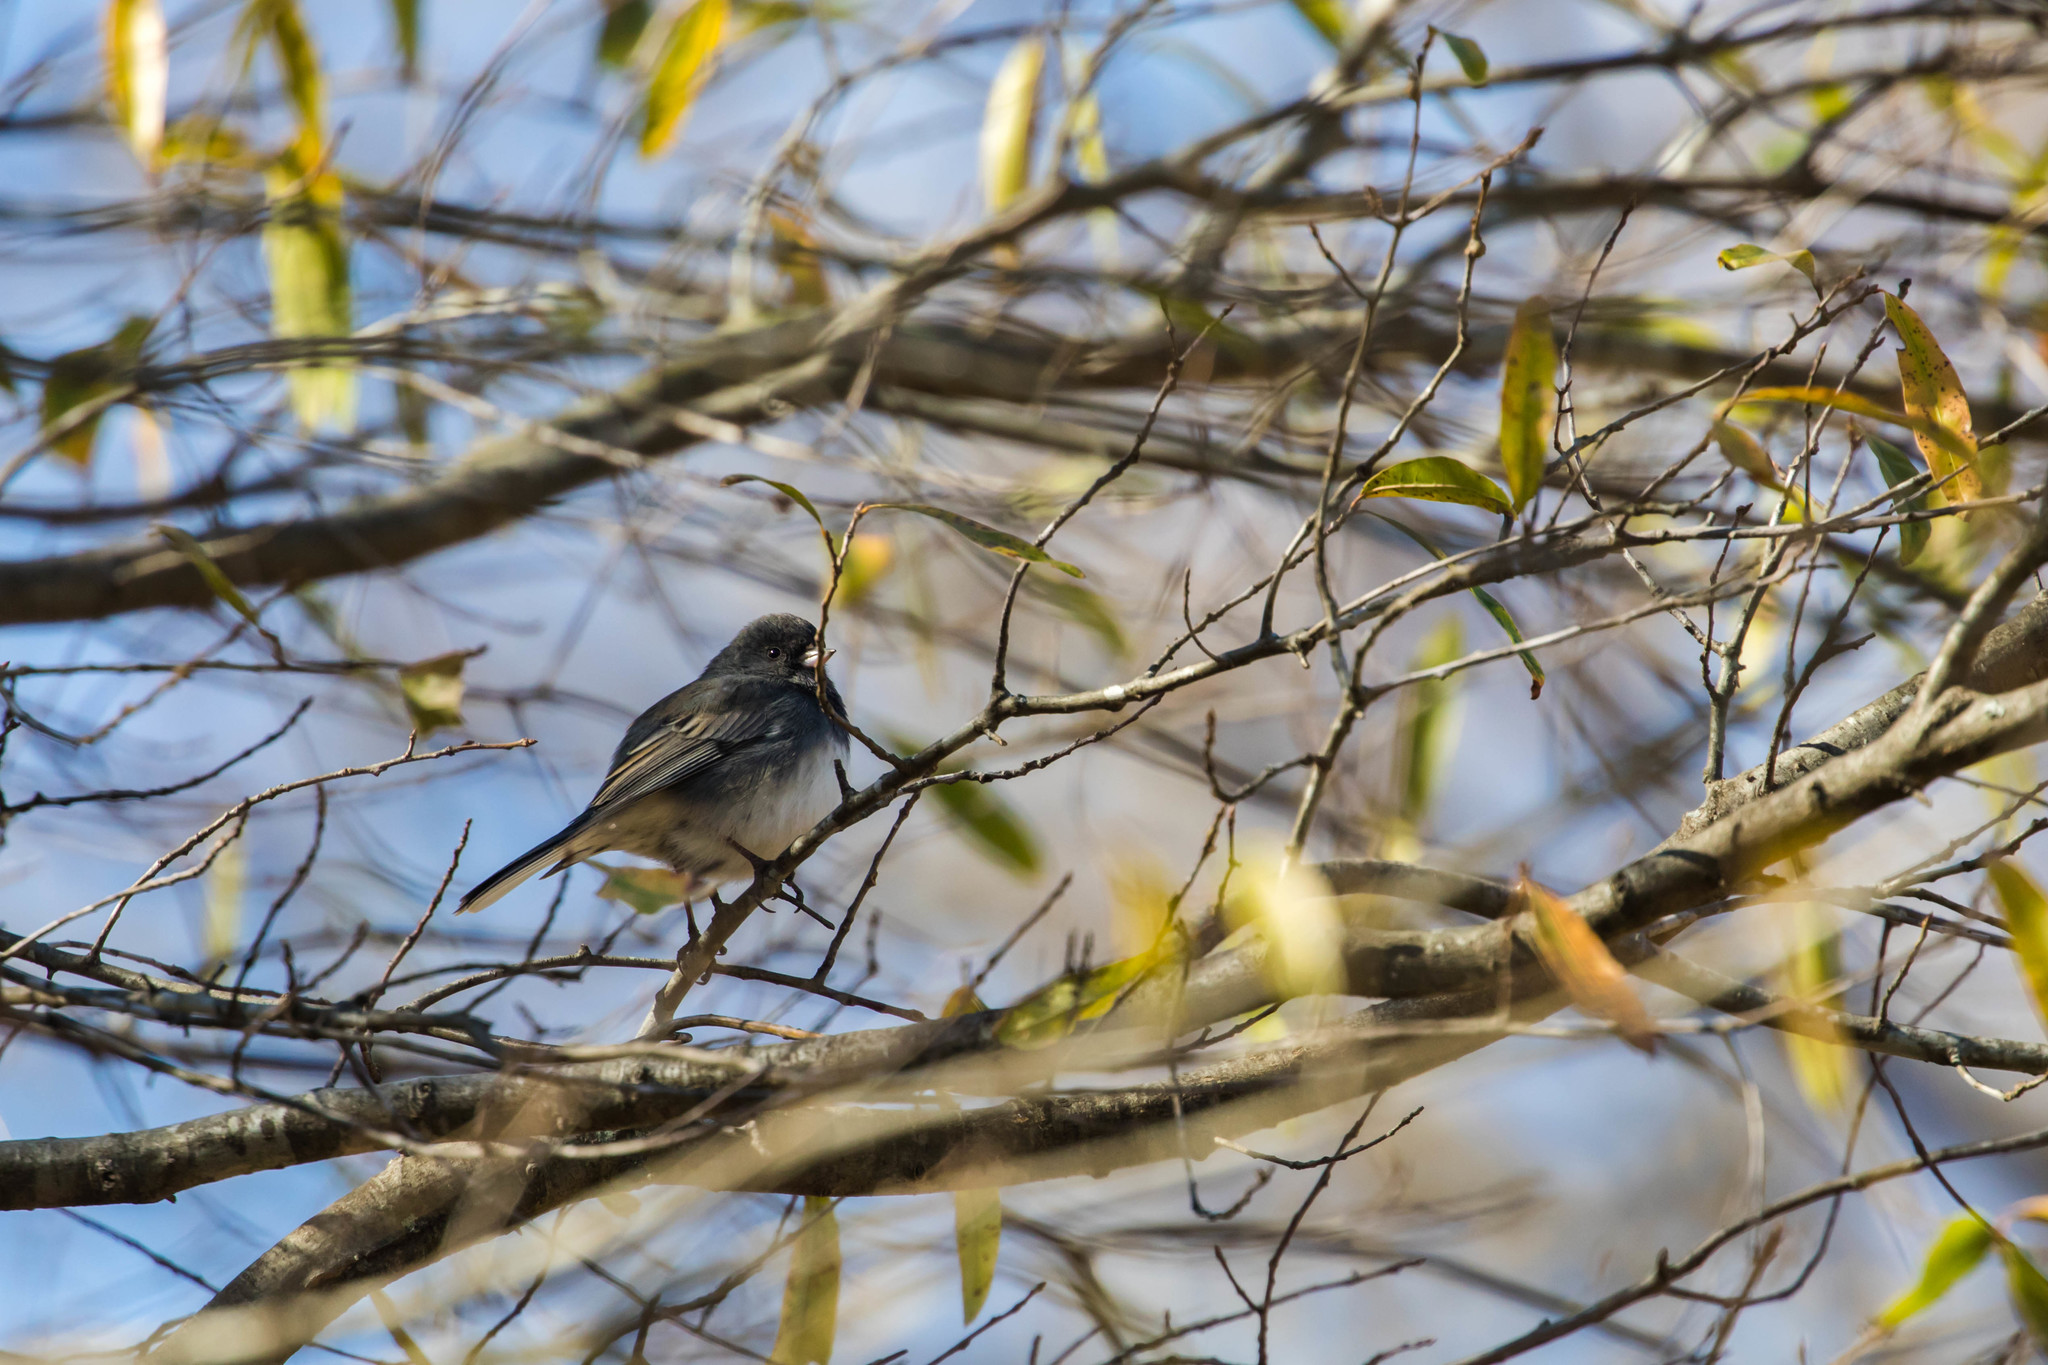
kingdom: Animalia
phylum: Chordata
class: Aves
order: Passeriformes
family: Passerellidae
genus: Junco
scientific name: Junco hyemalis
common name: Dark-eyed junco
